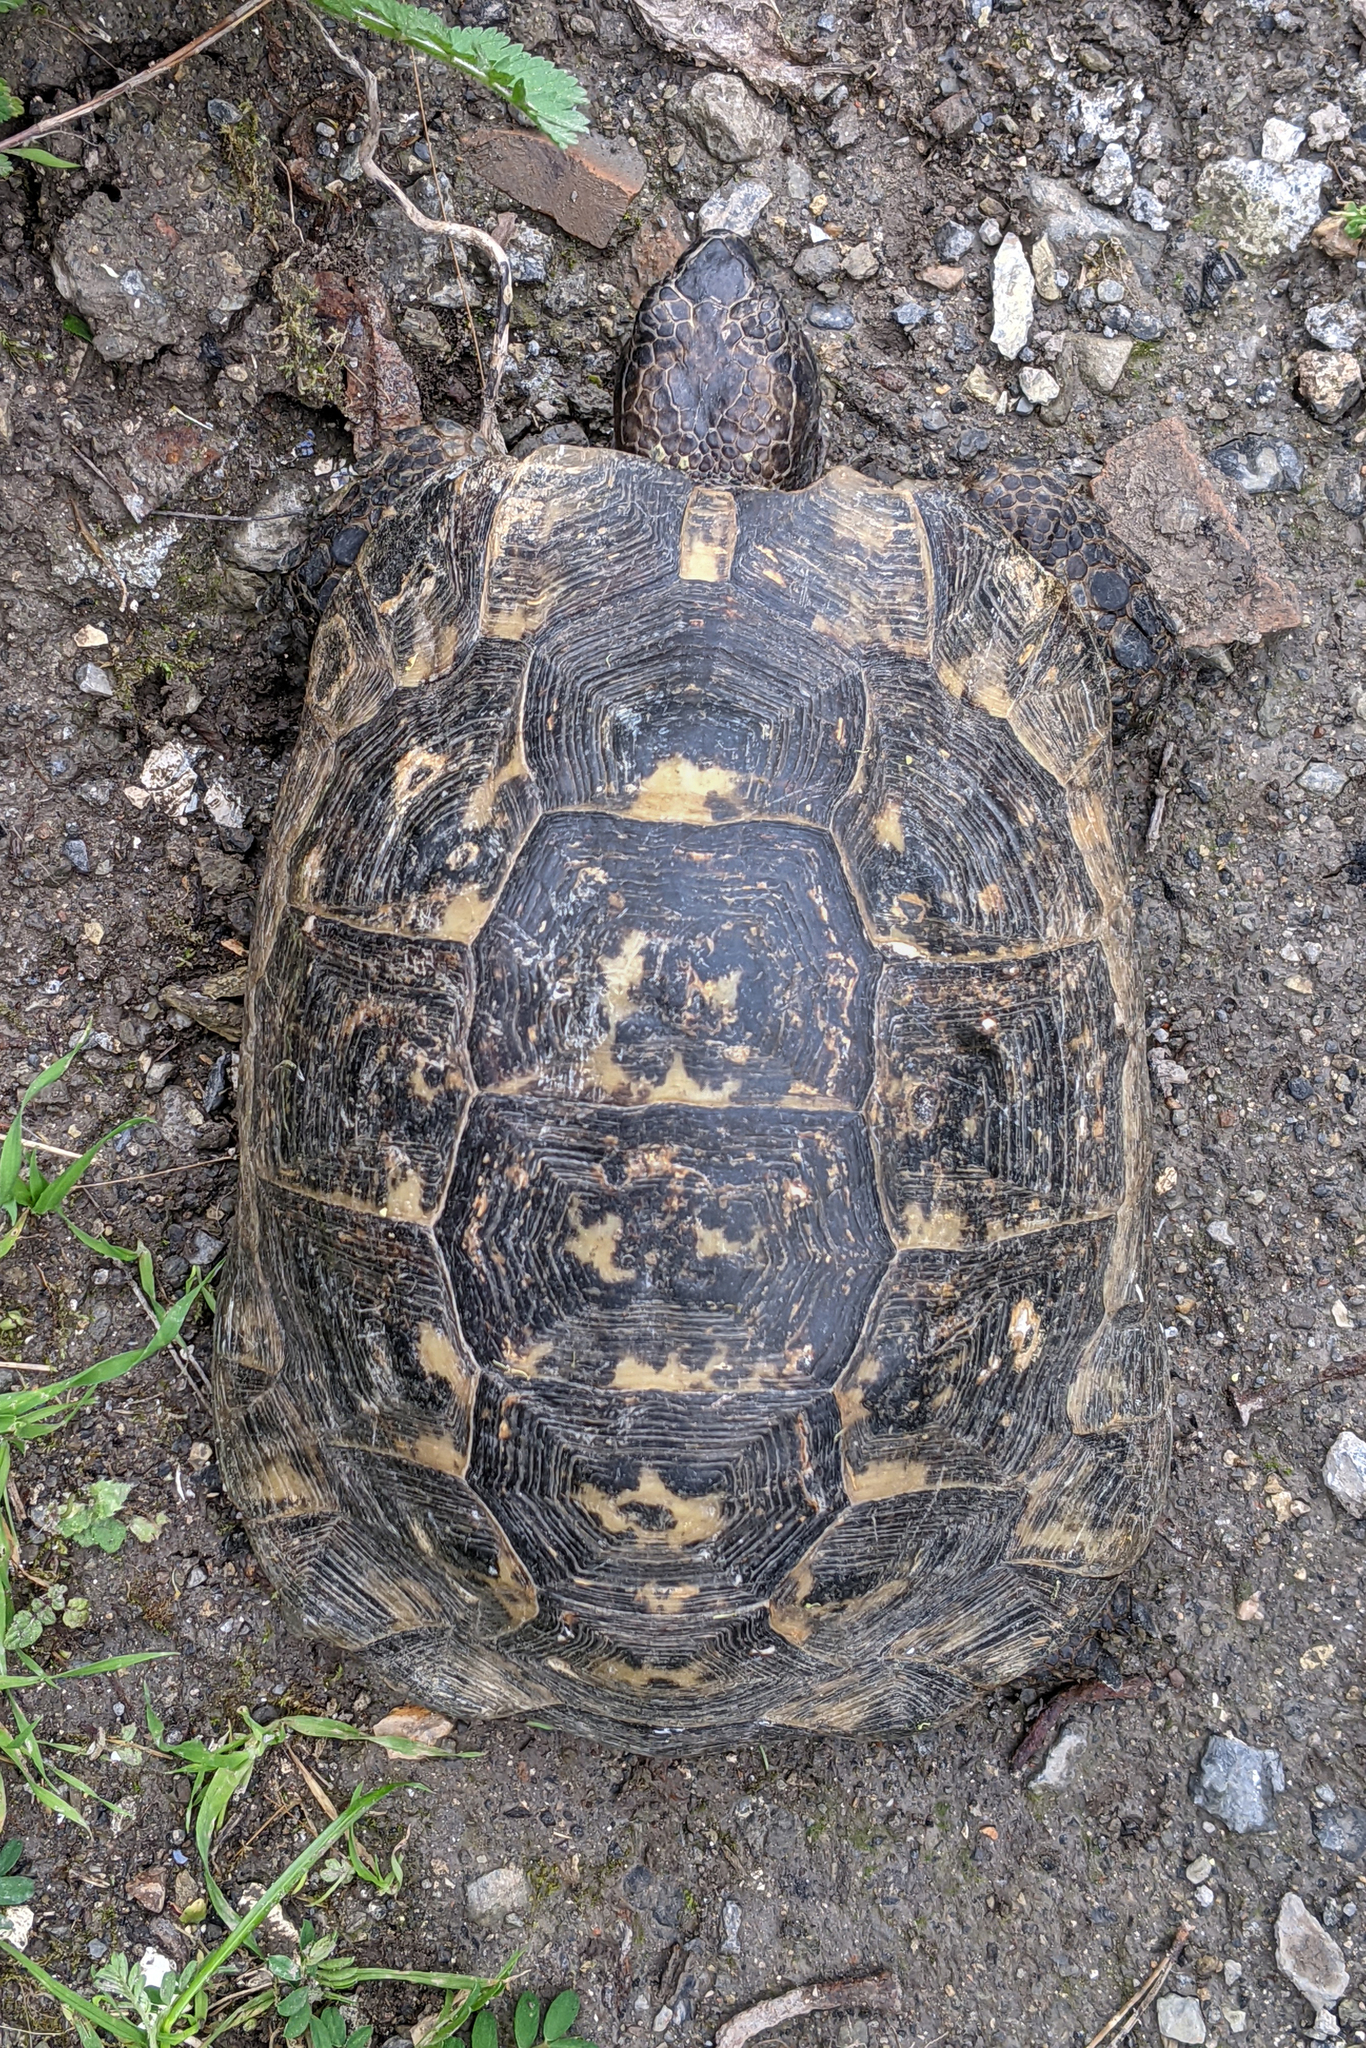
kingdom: Animalia
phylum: Chordata
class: Testudines
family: Testudinidae
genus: Testudo
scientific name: Testudo graeca
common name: Common tortoise
